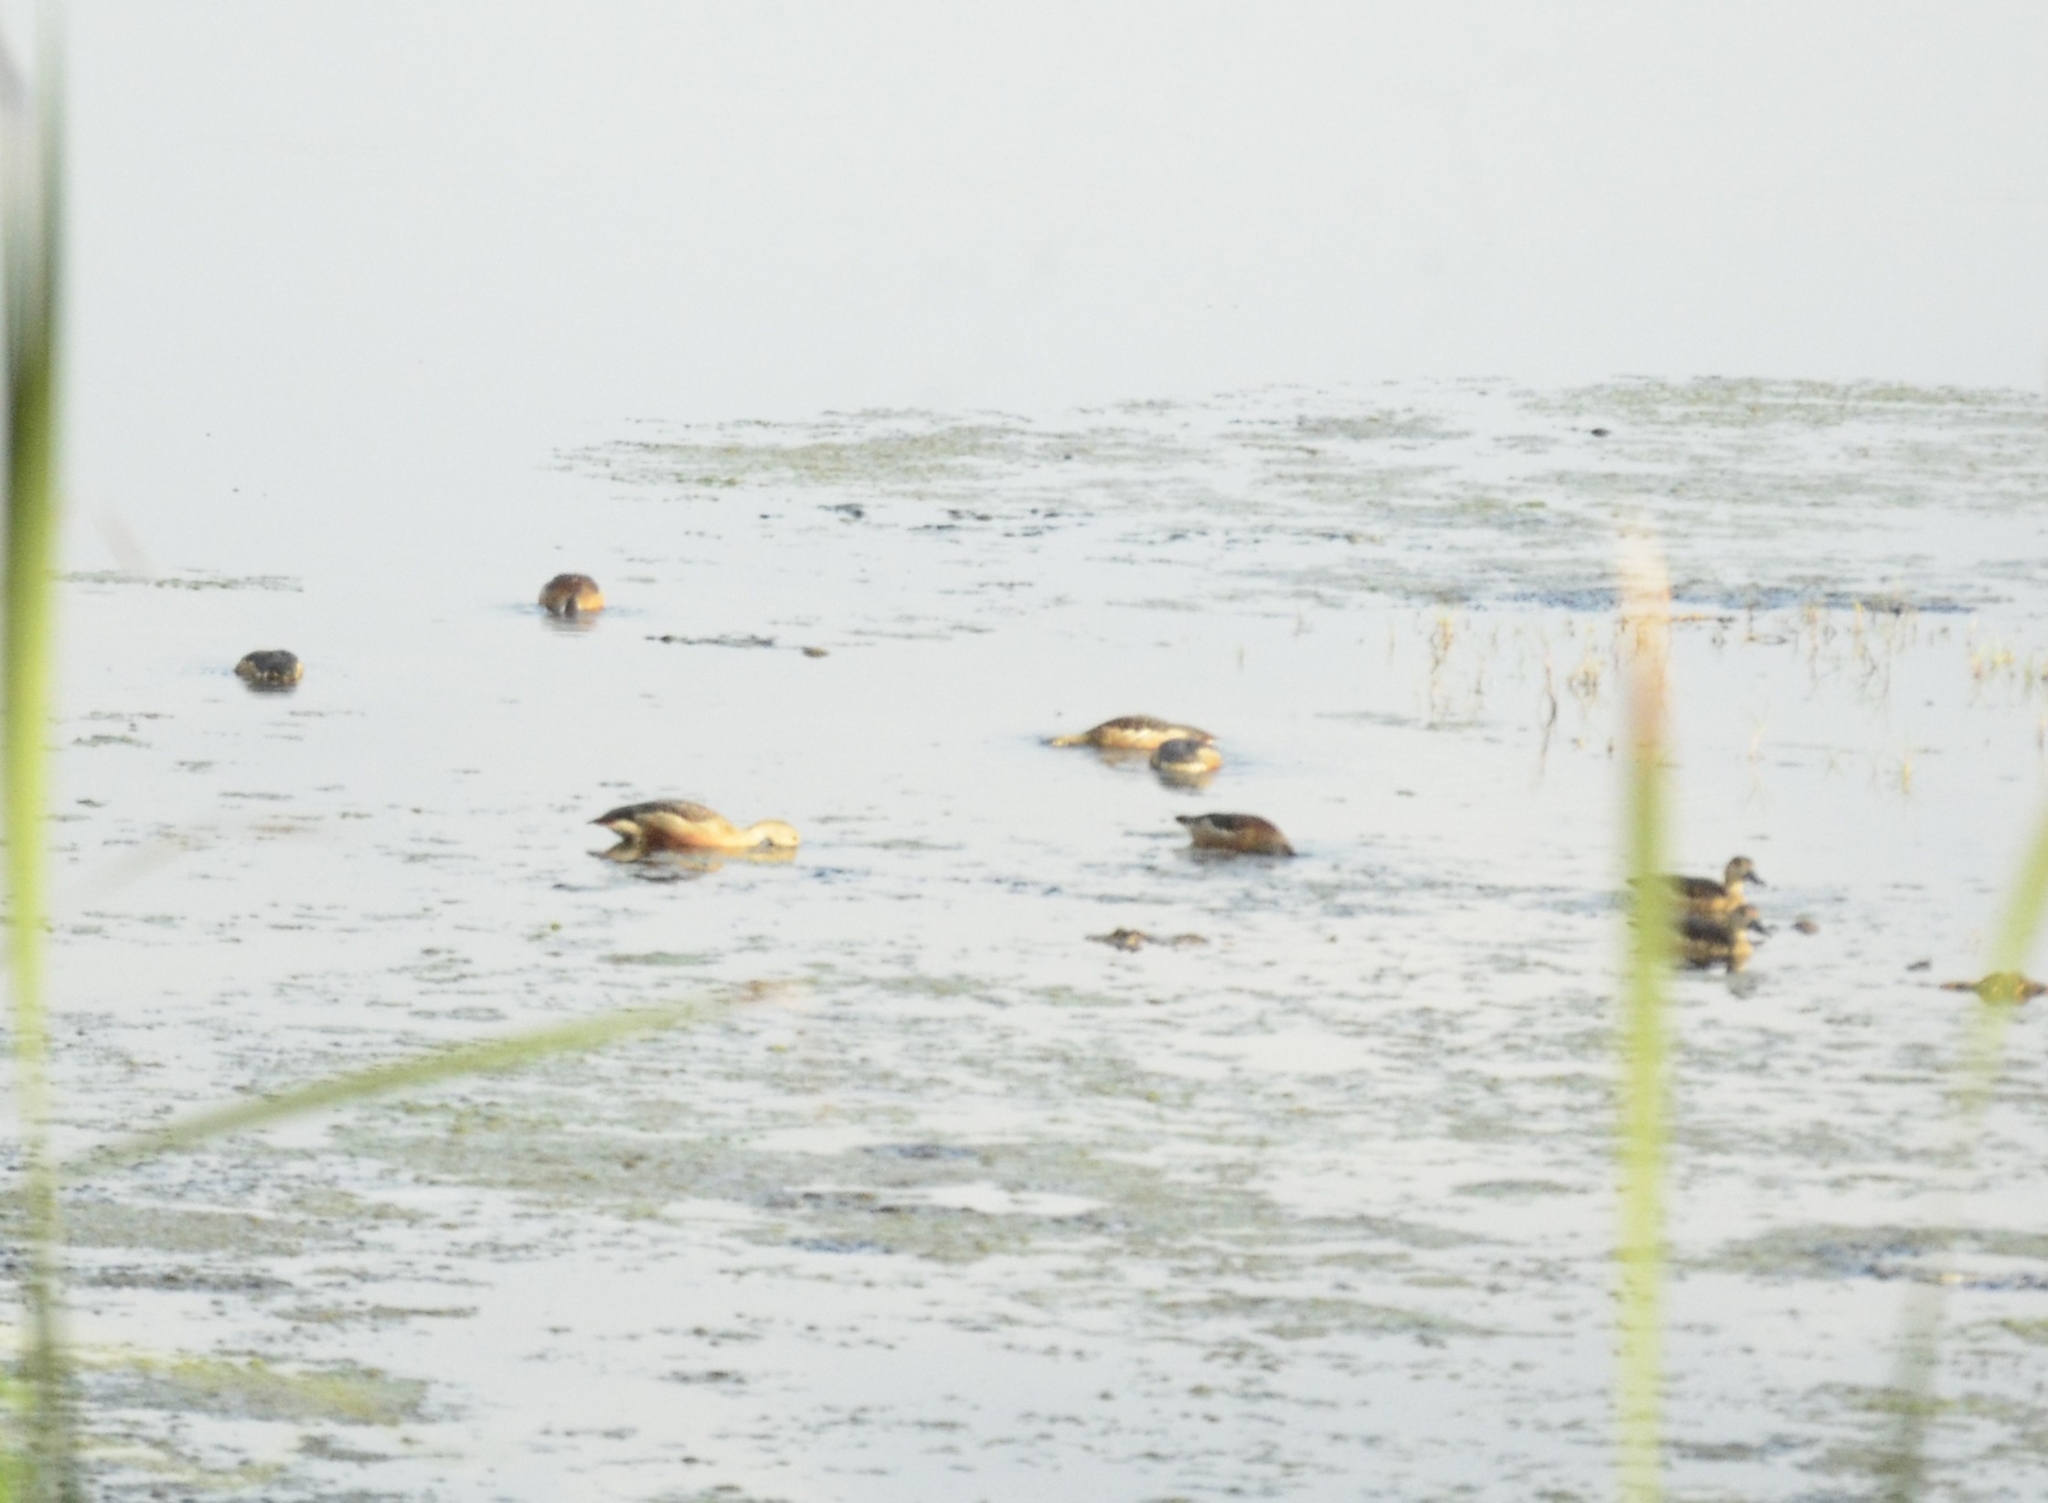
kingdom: Animalia
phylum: Chordata
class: Aves
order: Anseriformes
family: Anatidae
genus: Dendrocygna
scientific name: Dendrocygna javanica
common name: Lesser whistling-duck
